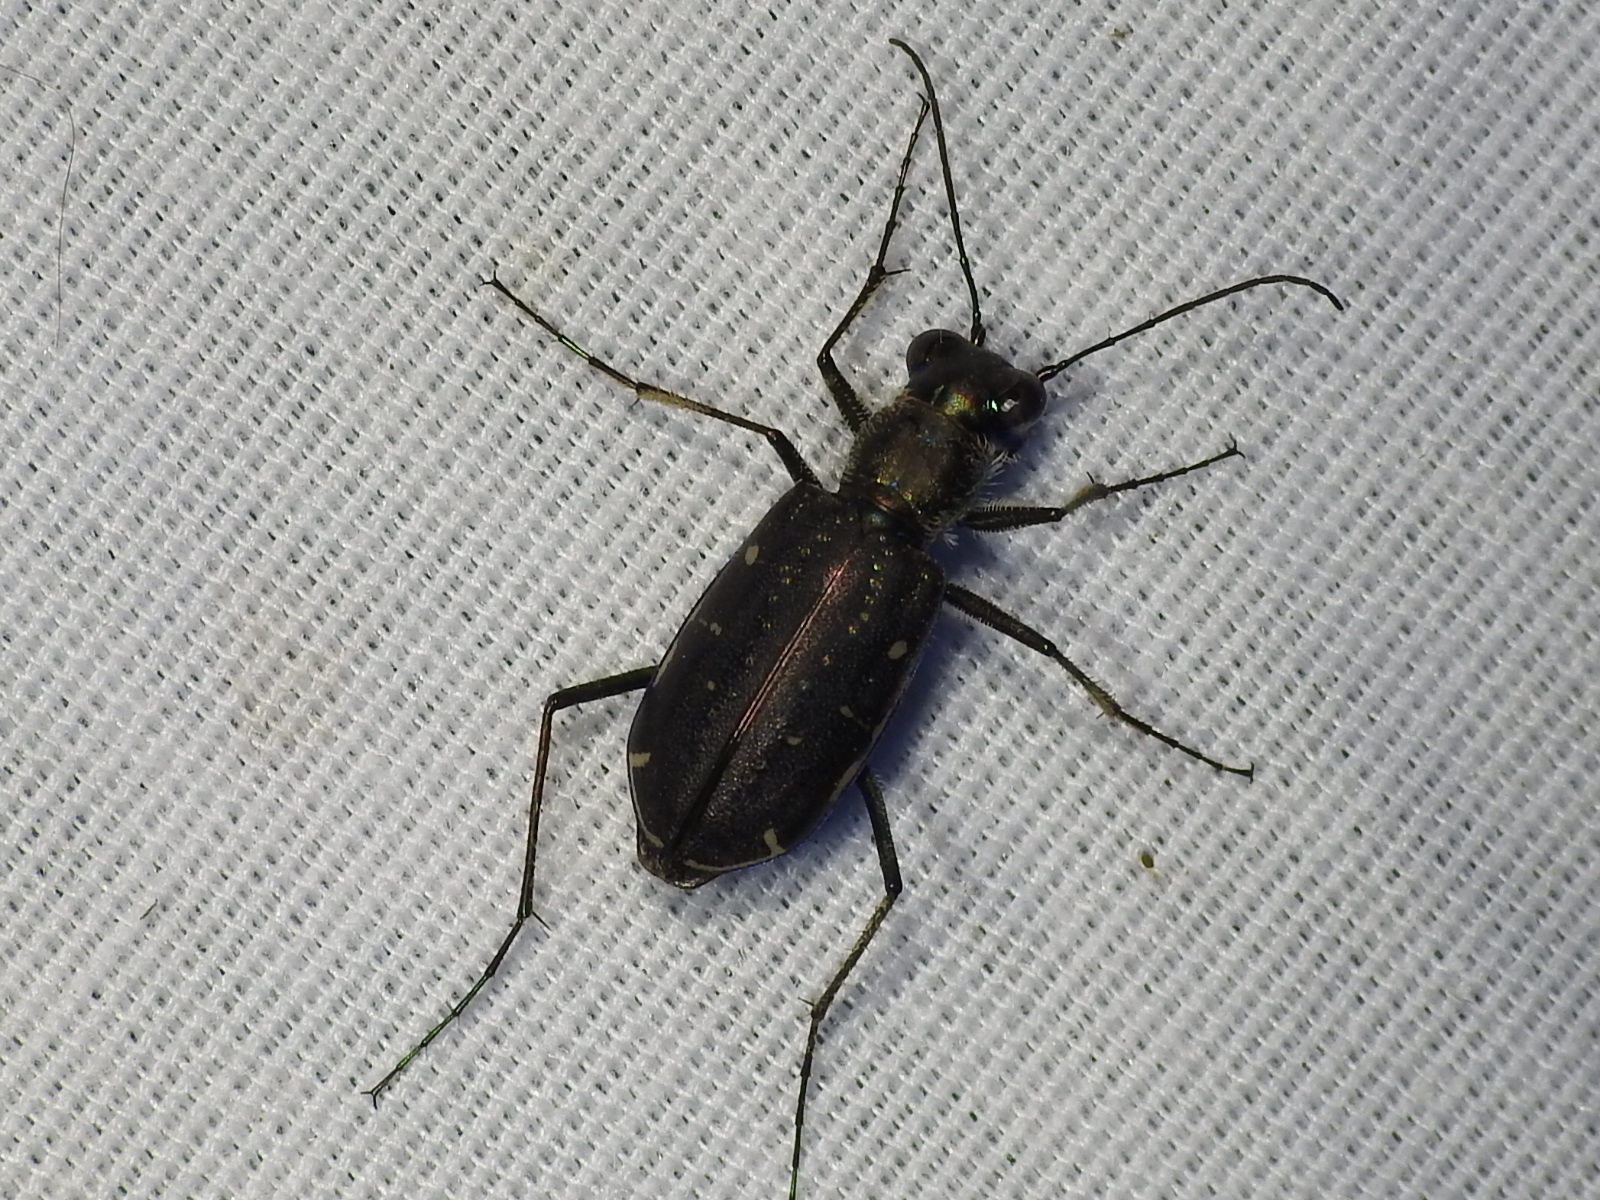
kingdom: Animalia
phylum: Arthropoda
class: Insecta
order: Coleoptera
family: Carabidae
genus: Cicindela
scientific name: Cicindela punctulata
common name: Punctured tiger beetle
